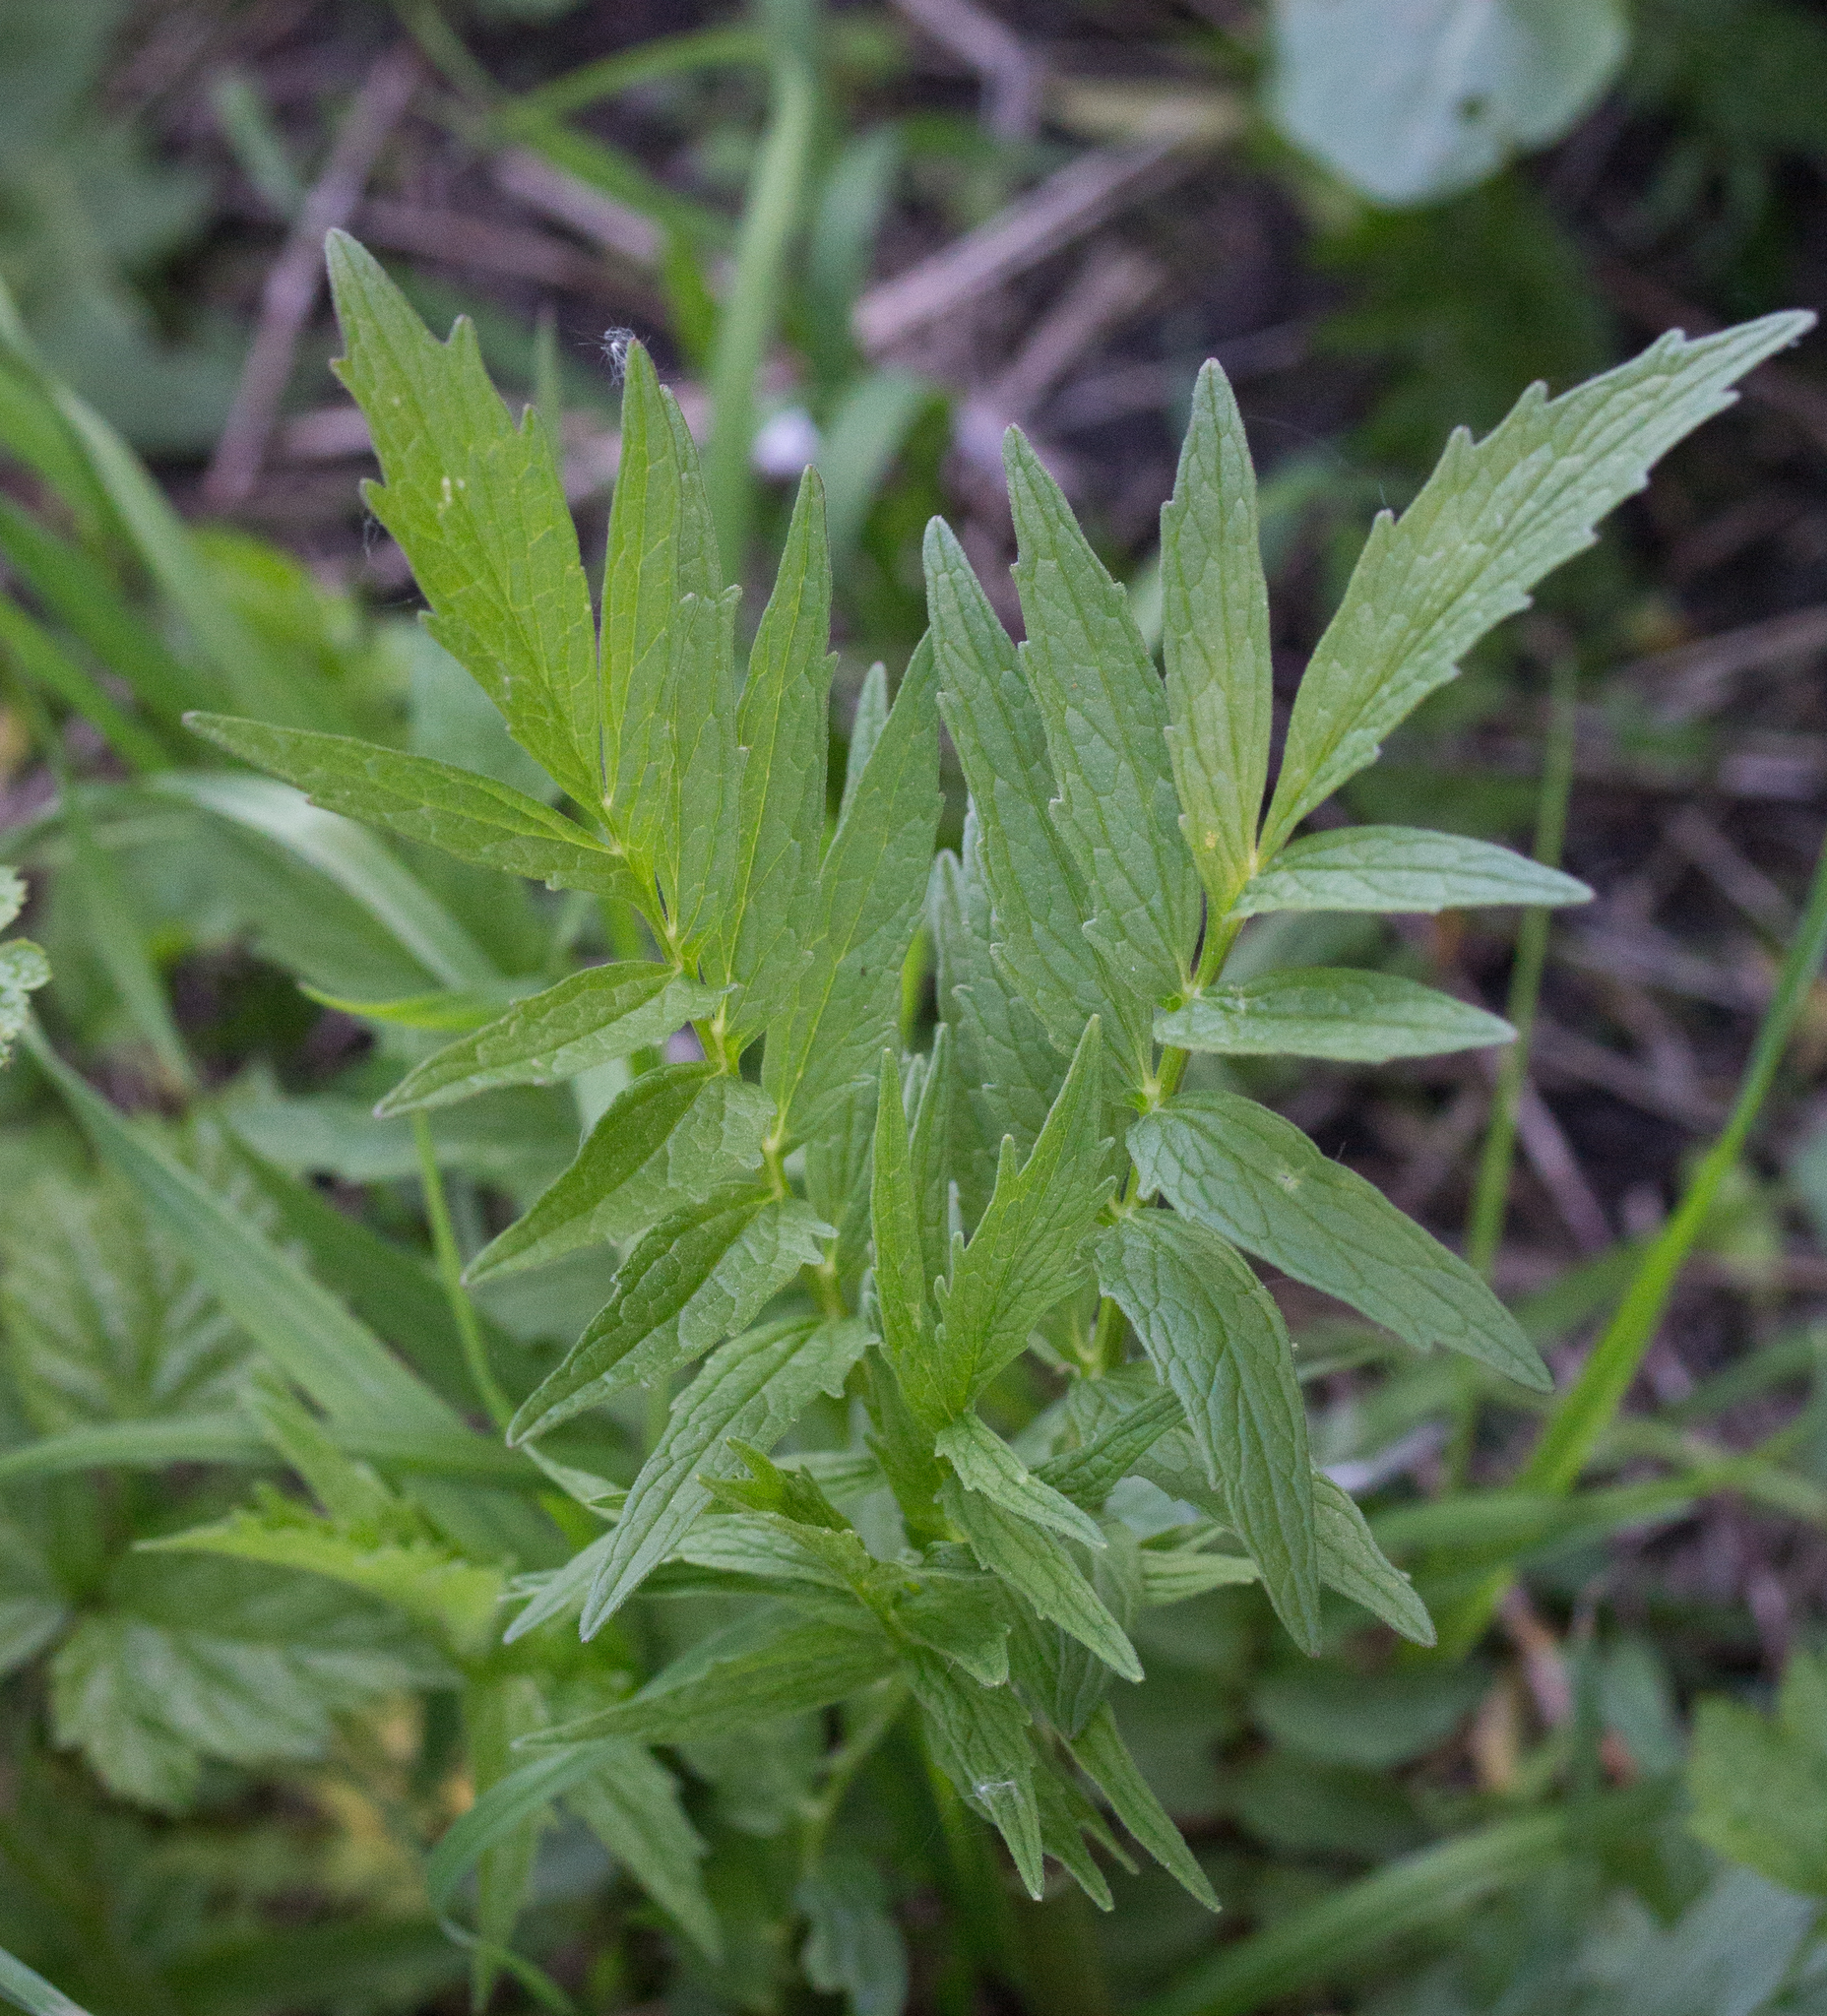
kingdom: Plantae
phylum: Tracheophyta
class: Magnoliopsida
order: Dipsacales
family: Caprifoliaceae
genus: Valeriana
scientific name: Valeriana officinalis
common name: Common valerian
